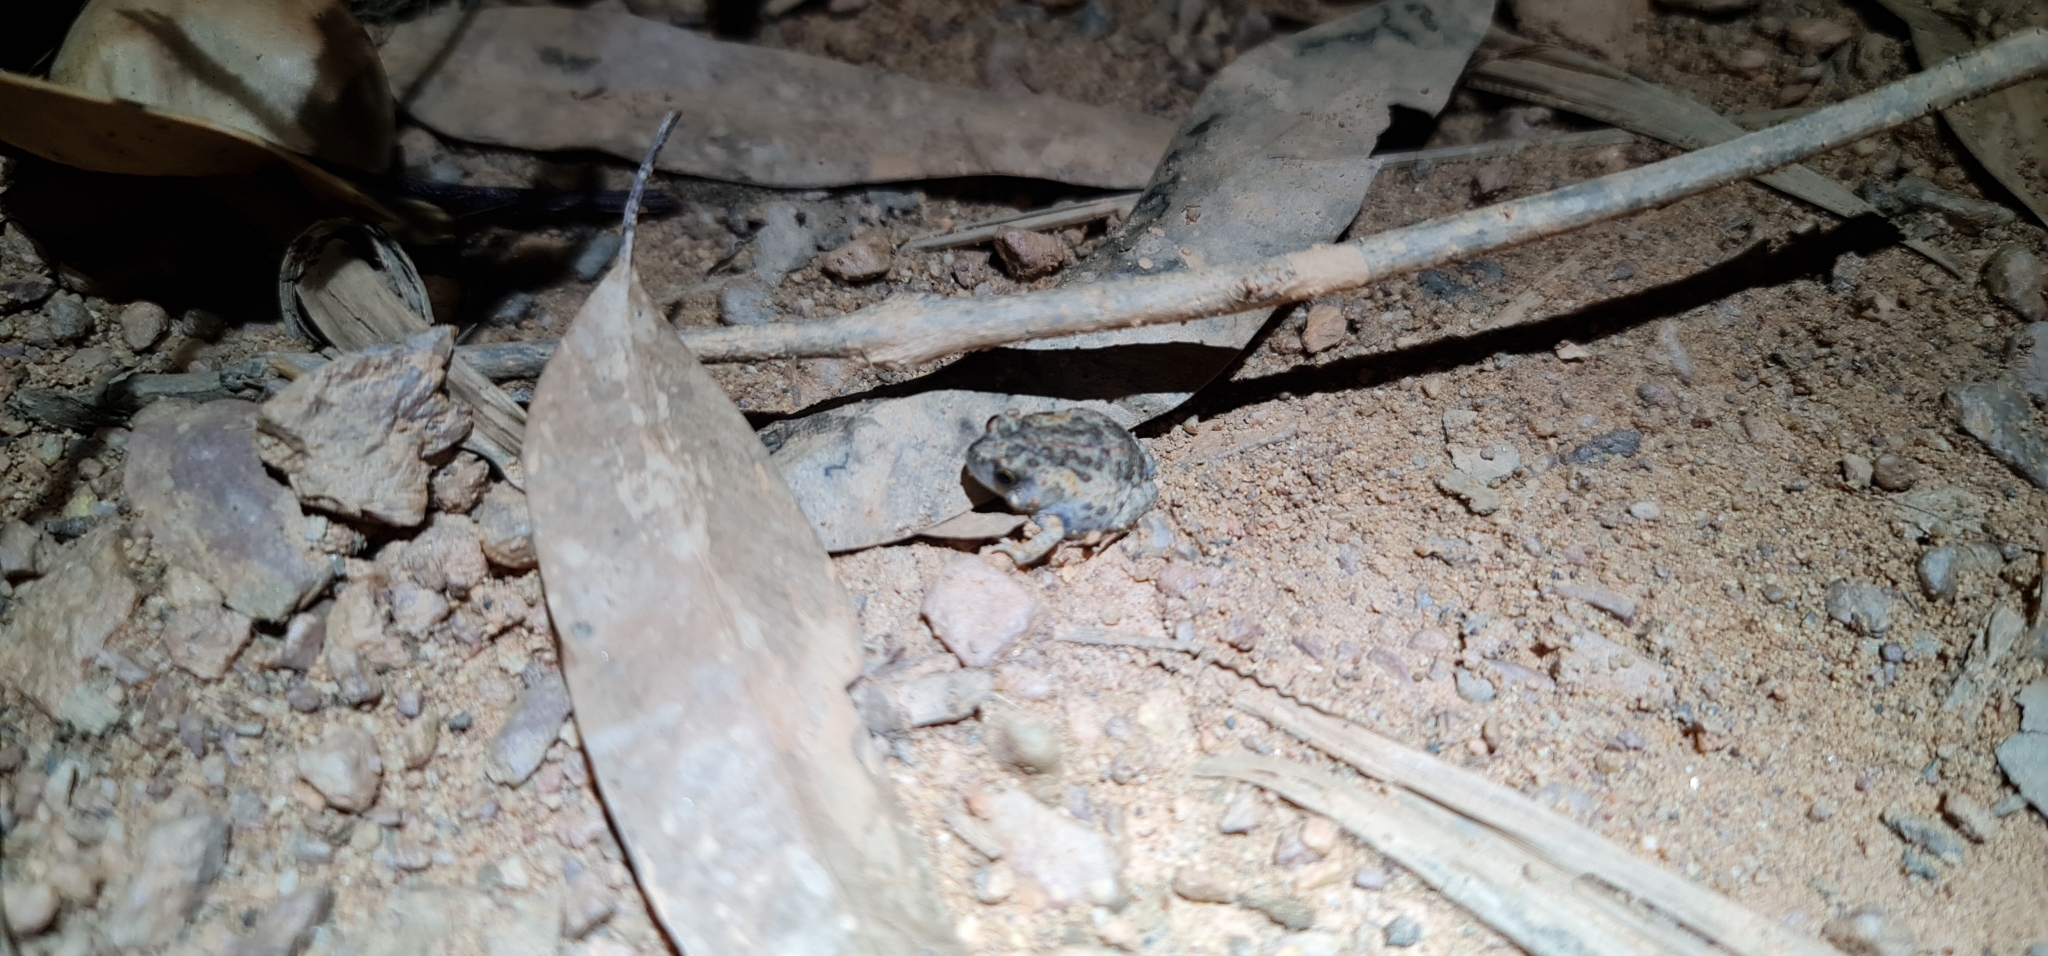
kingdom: Animalia
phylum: Chordata
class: Amphibia
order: Anura
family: Myobatrachidae
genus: Uperoleia
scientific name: Uperoleia crassa
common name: Fat toadlet
